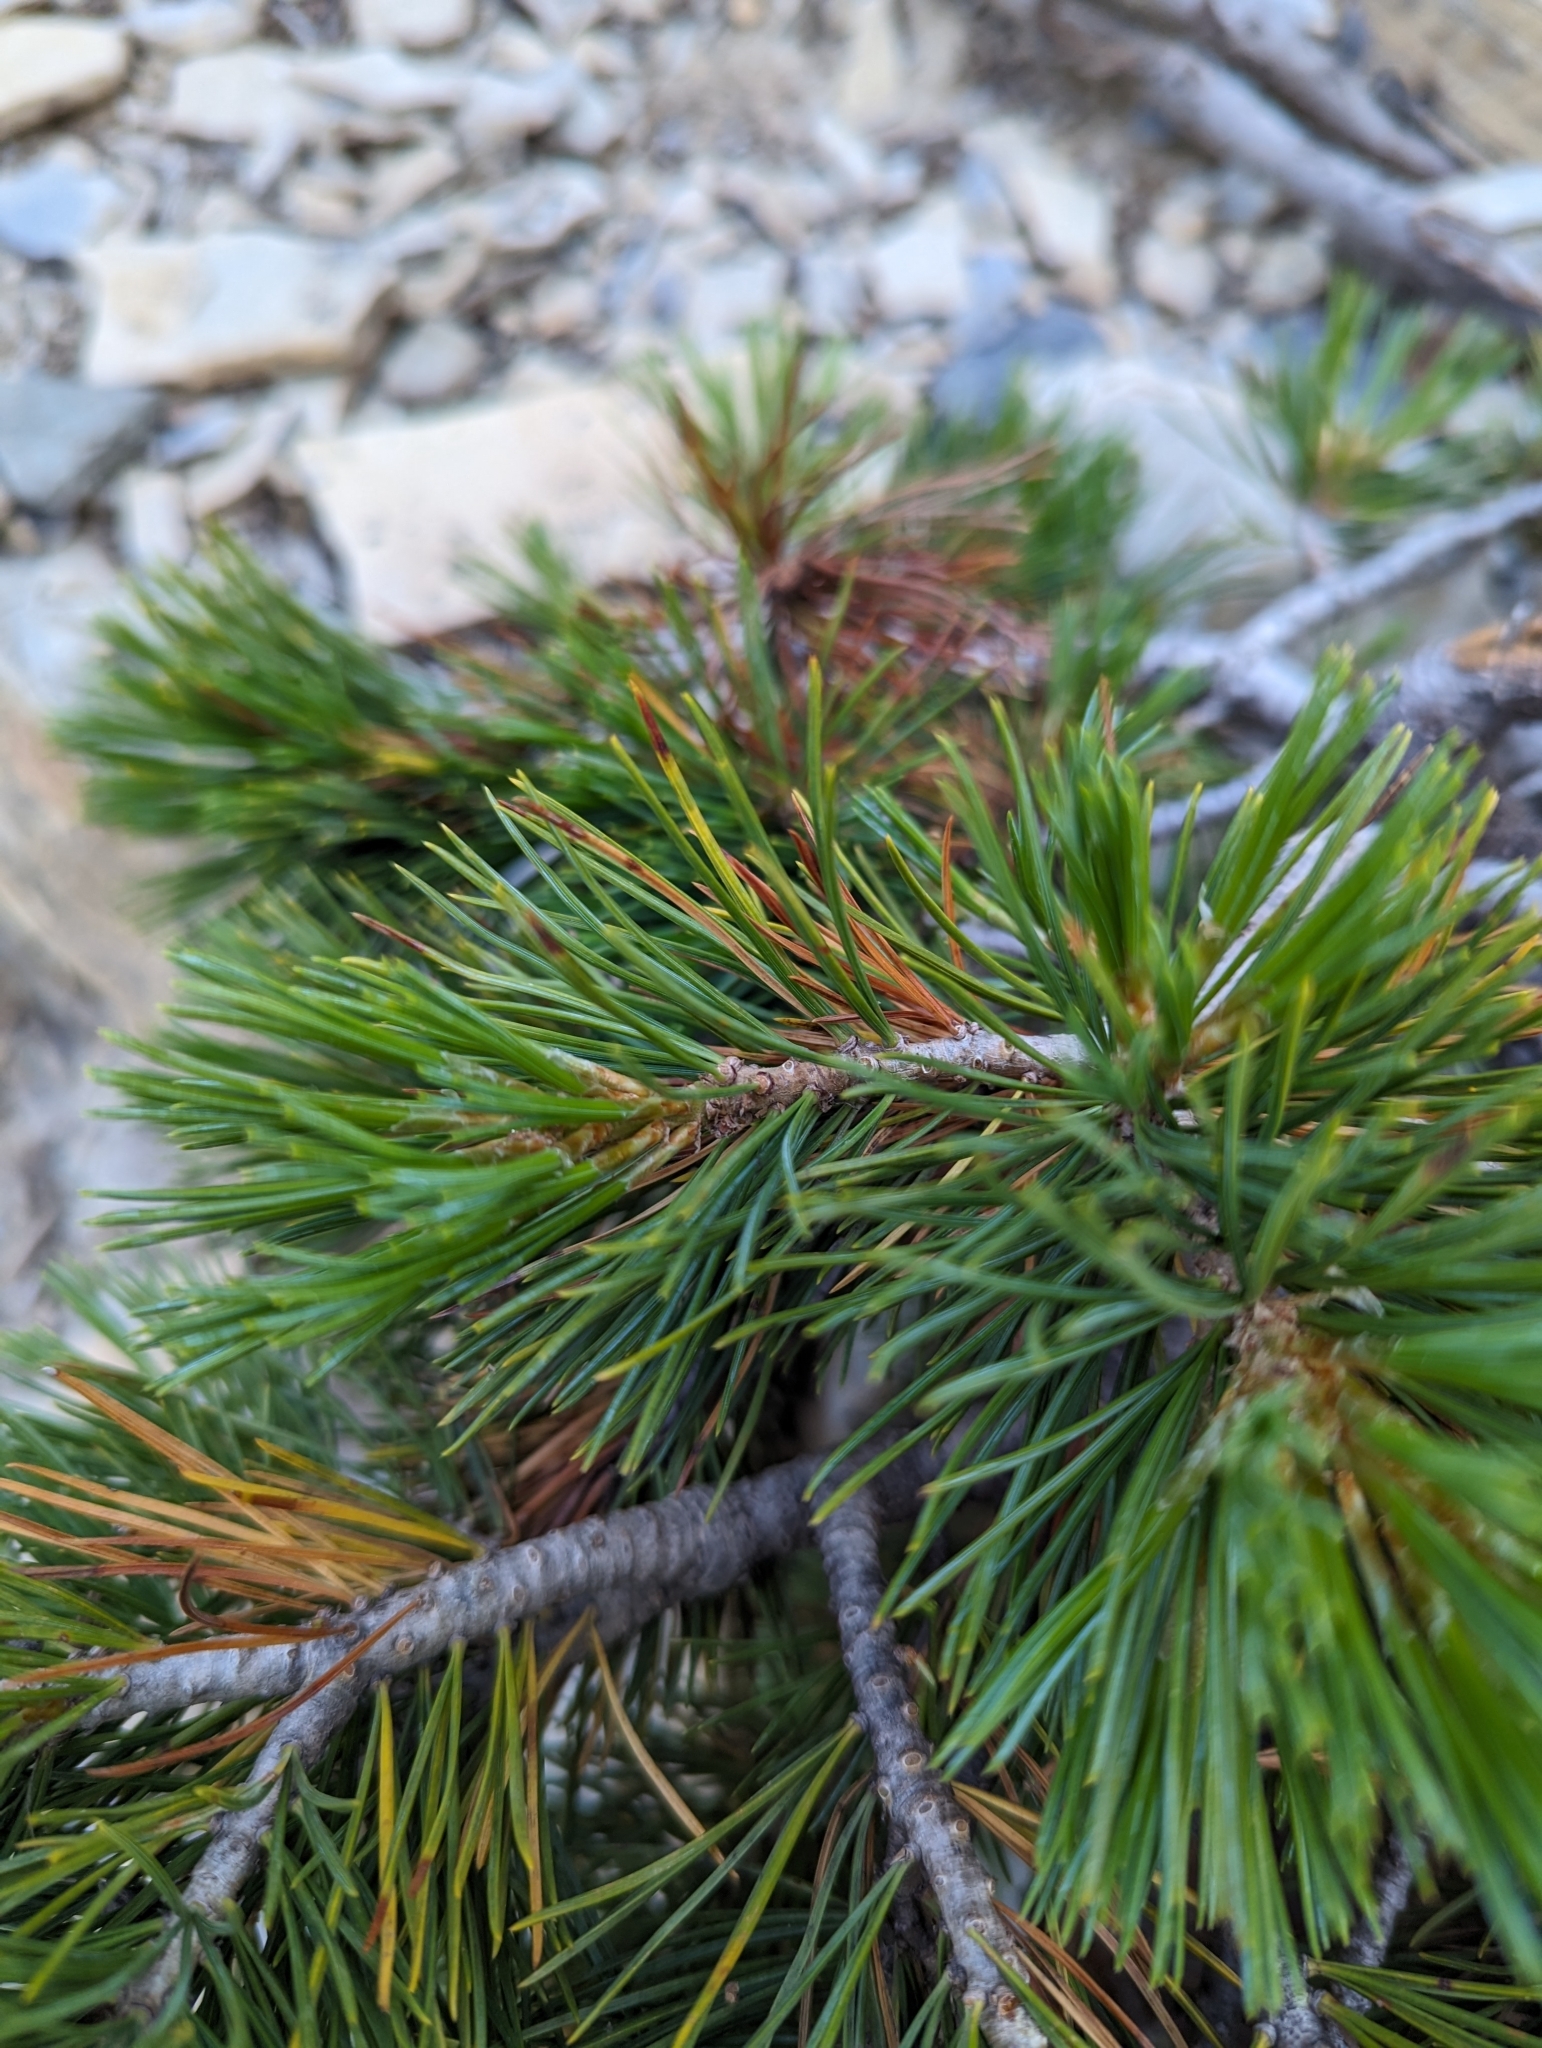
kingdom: Plantae
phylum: Tracheophyta
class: Pinopsida
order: Pinales
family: Pinaceae
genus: Pinus
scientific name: Pinus albicaulis
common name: Whitebark pine
